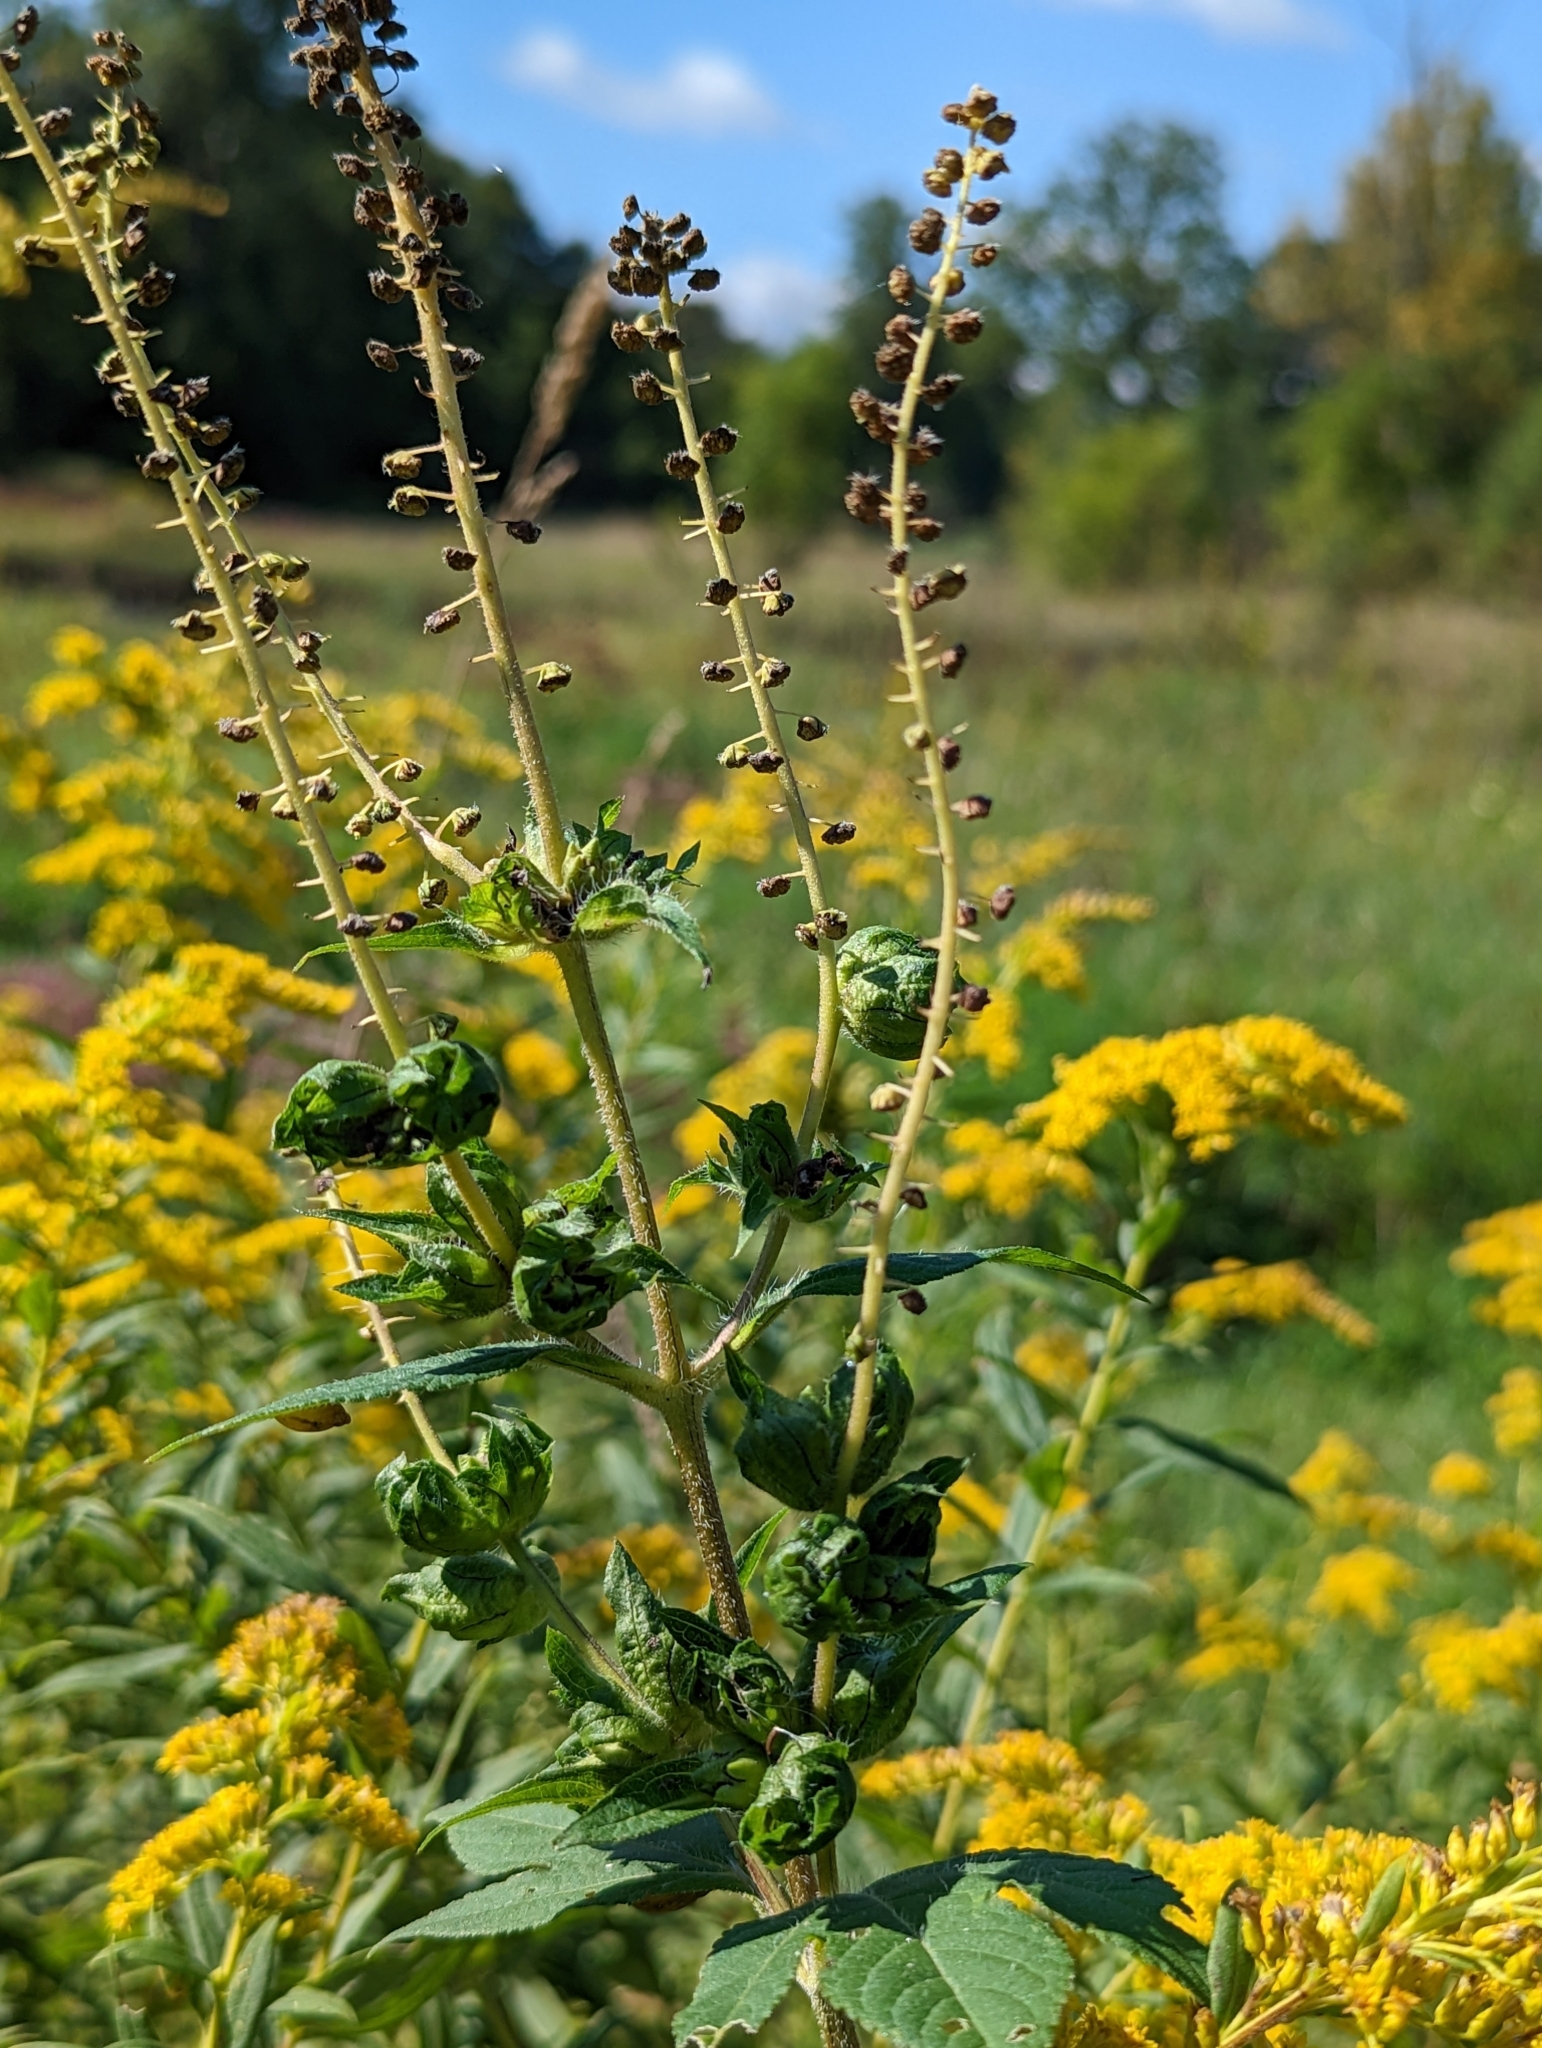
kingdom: Plantae
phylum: Tracheophyta
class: Magnoliopsida
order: Asterales
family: Asteraceae
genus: Ambrosia
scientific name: Ambrosia trifida
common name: Giant ragweed
